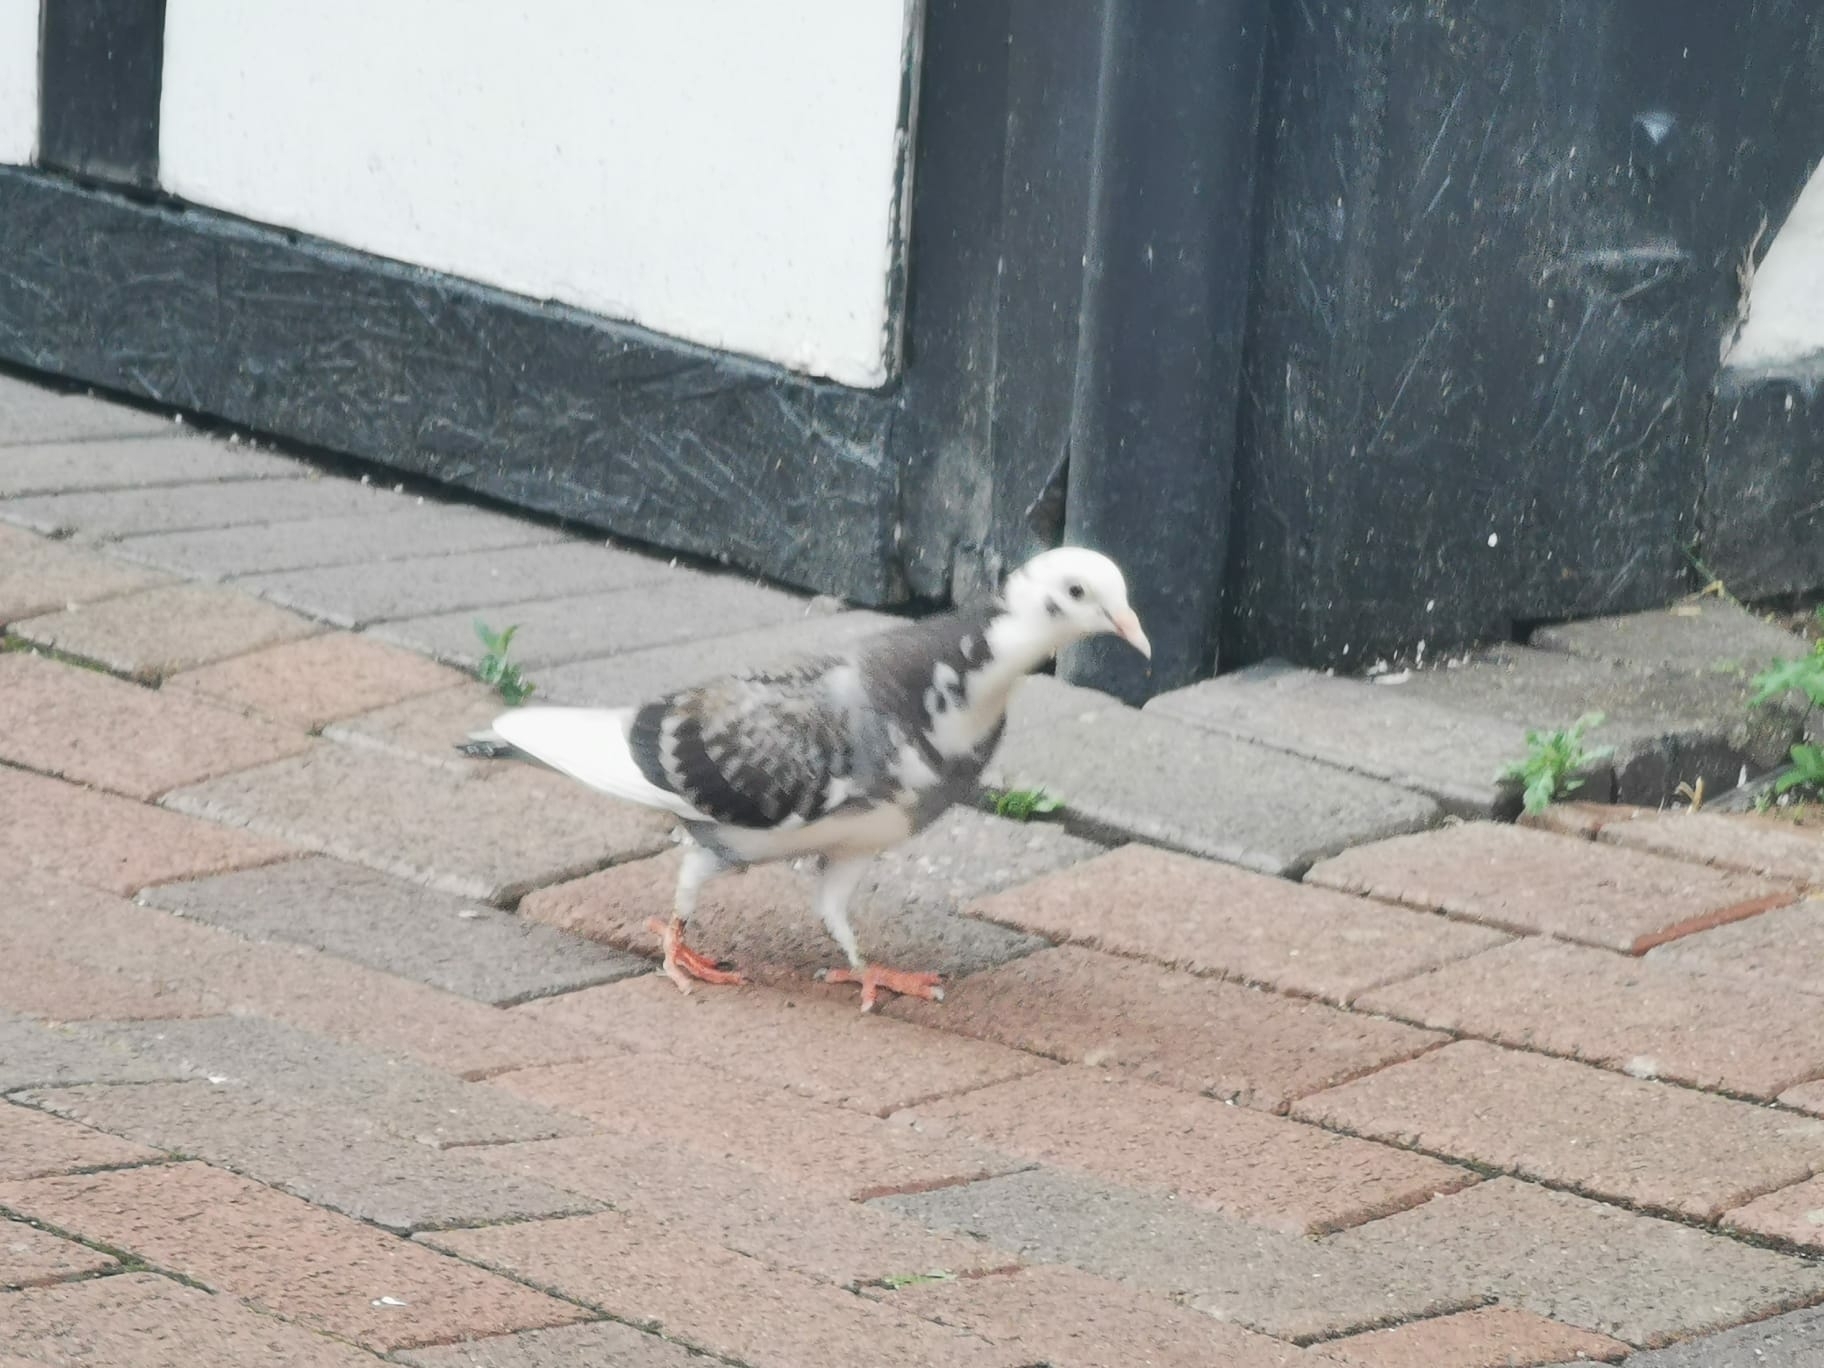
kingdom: Animalia
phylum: Chordata
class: Aves
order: Columbiformes
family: Columbidae
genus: Columba
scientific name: Columba livia
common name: Rock pigeon
